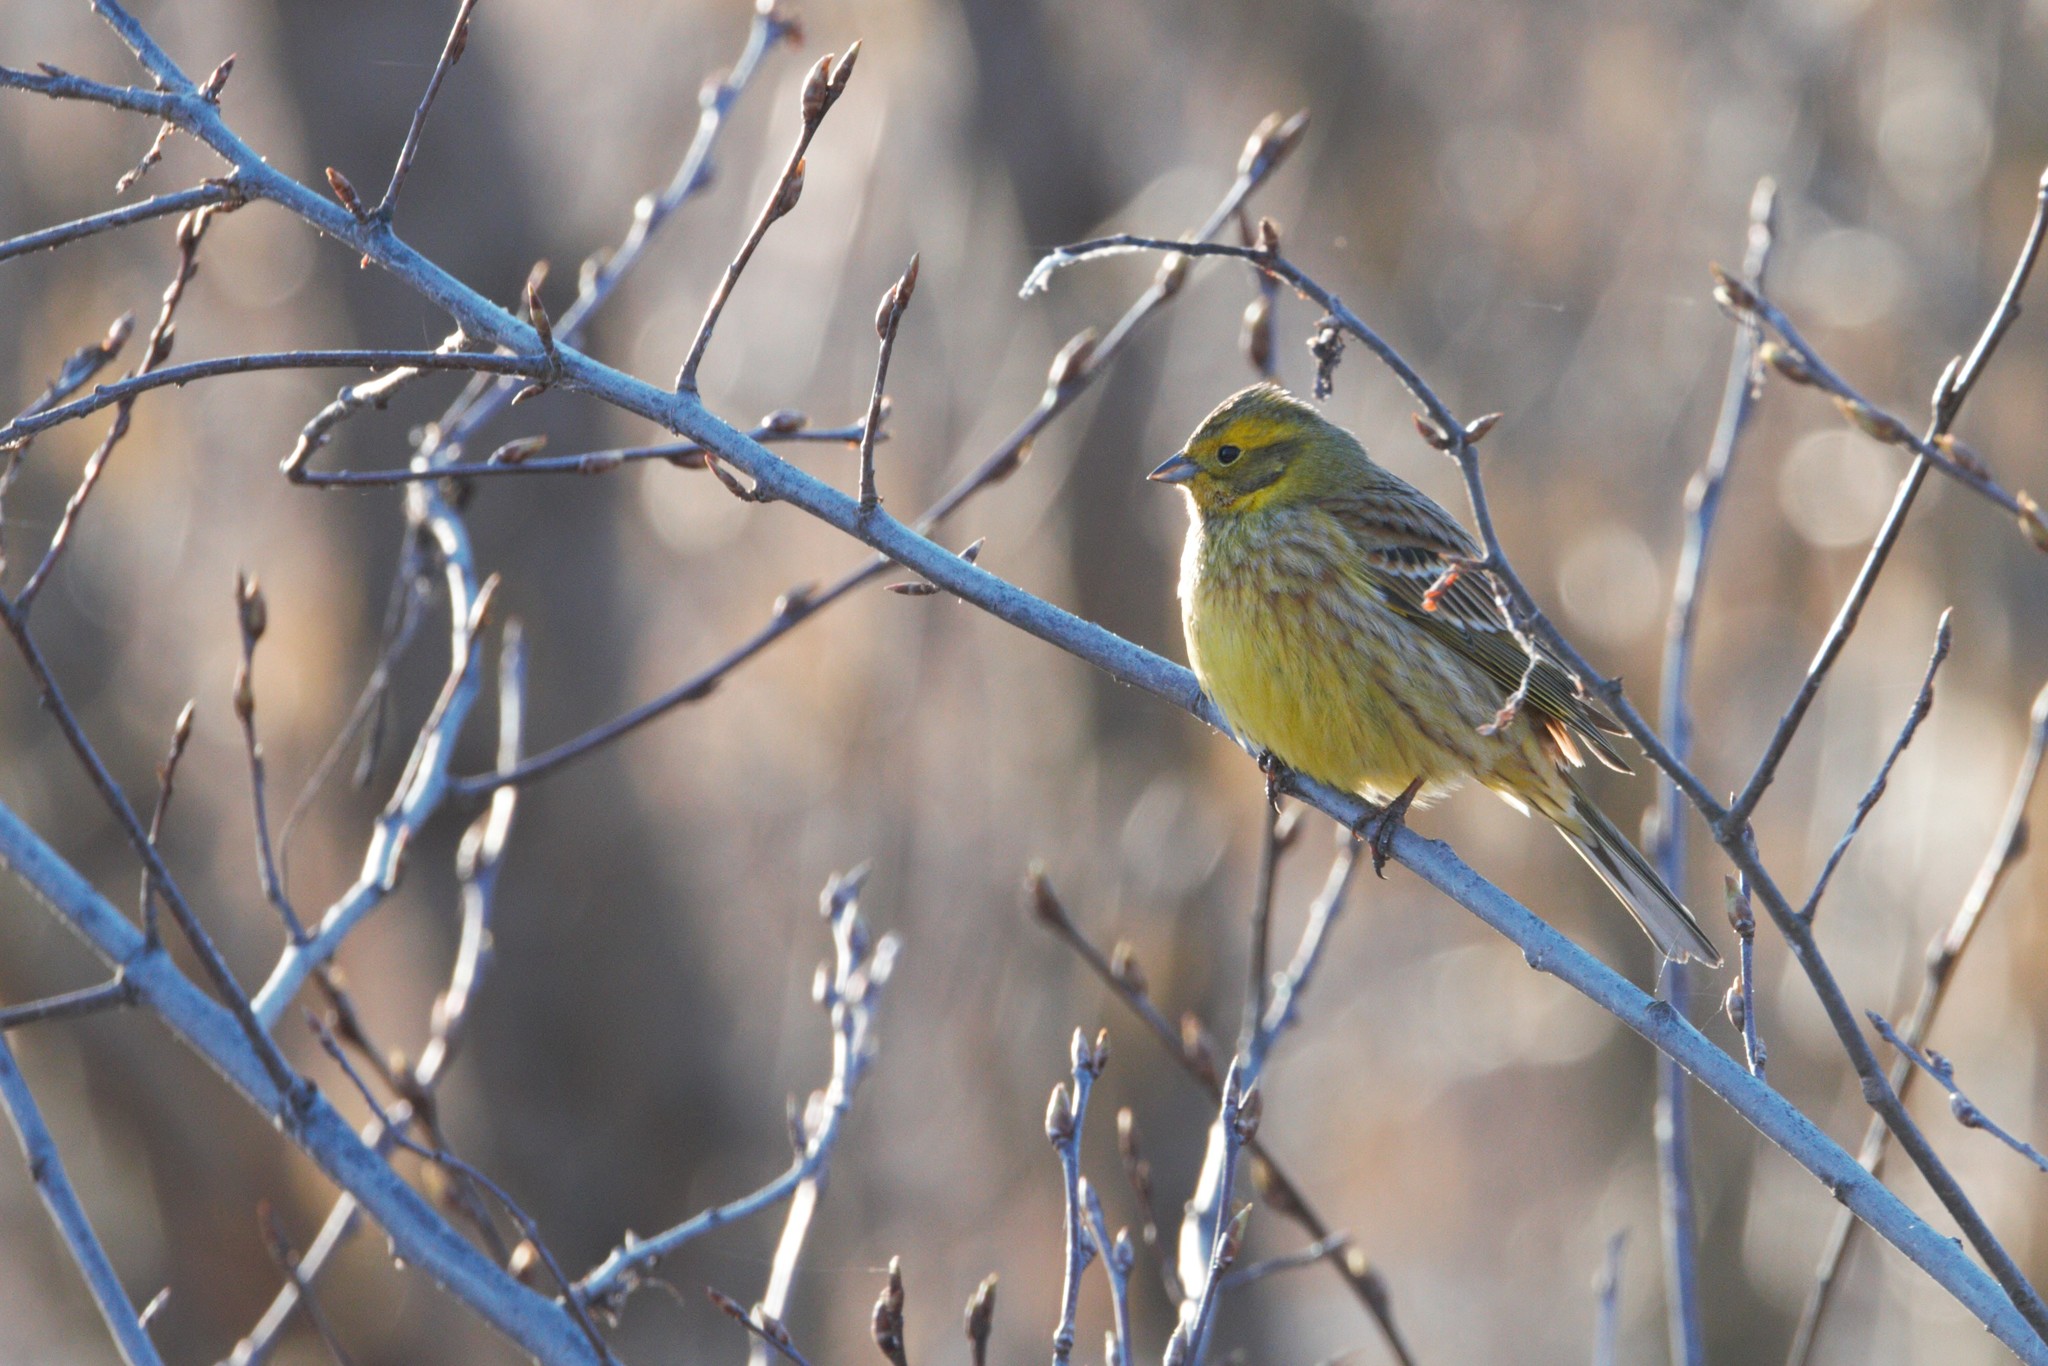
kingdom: Animalia
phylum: Chordata
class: Aves
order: Passeriformes
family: Emberizidae
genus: Emberiza
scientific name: Emberiza citrinella
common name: Yellowhammer
